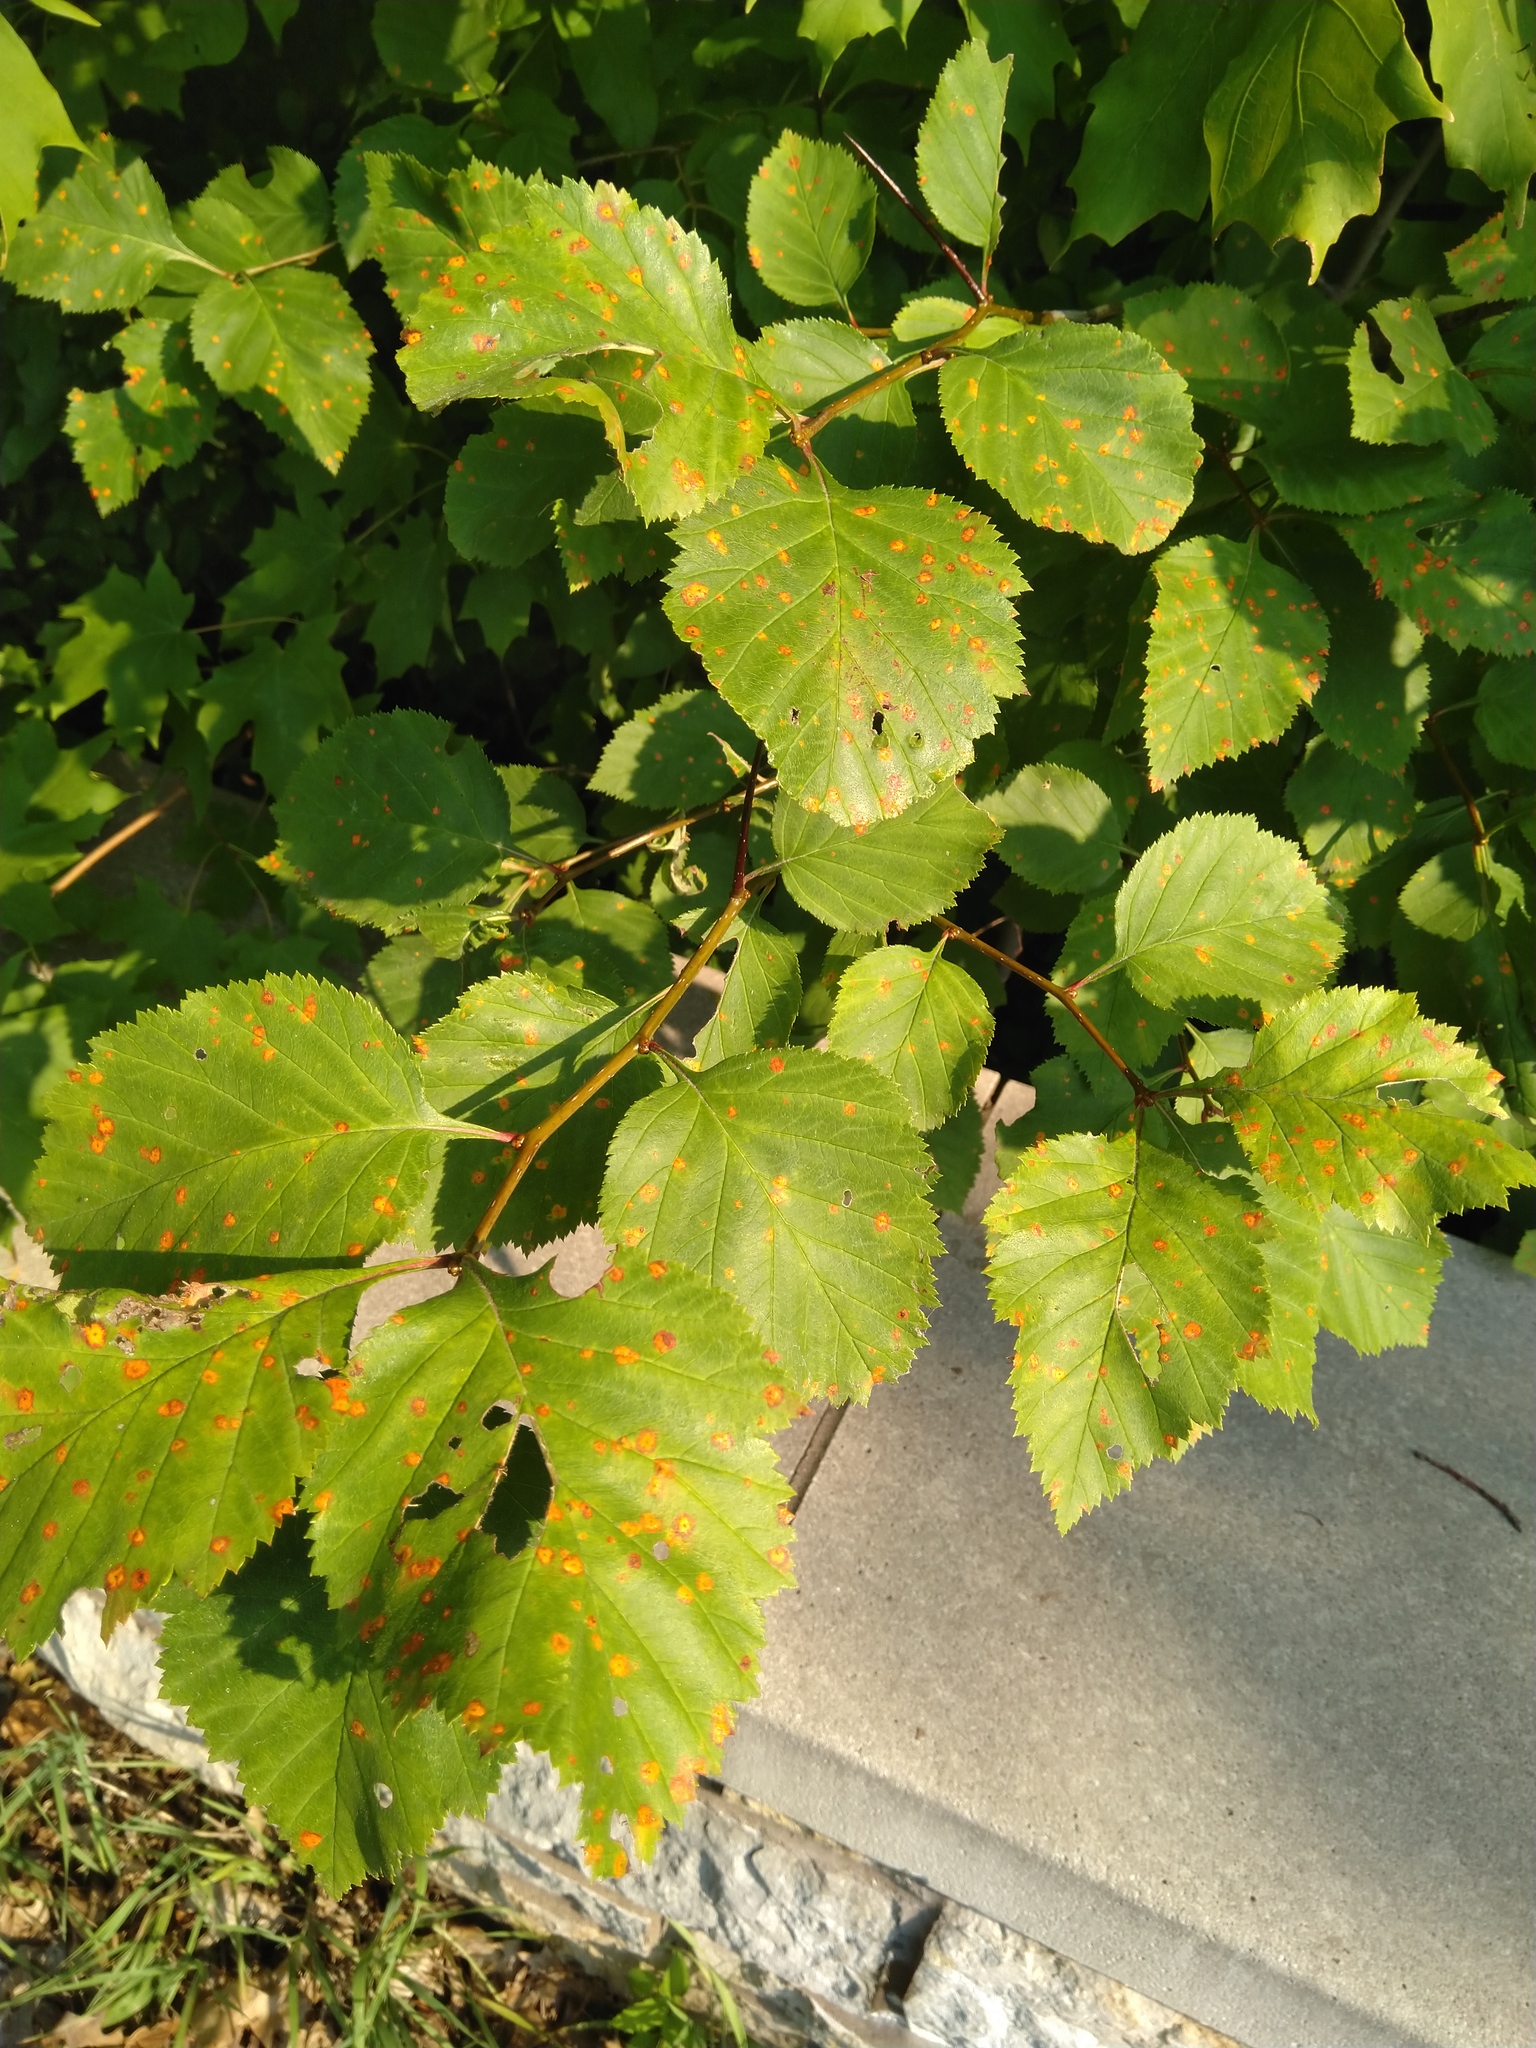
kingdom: Fungi
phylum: Basidiomycota
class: Pucciniomycetes
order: Pucciniales
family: Gymnosporangiaceae
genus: Gymnosporangium
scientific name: Gymnosporangium
